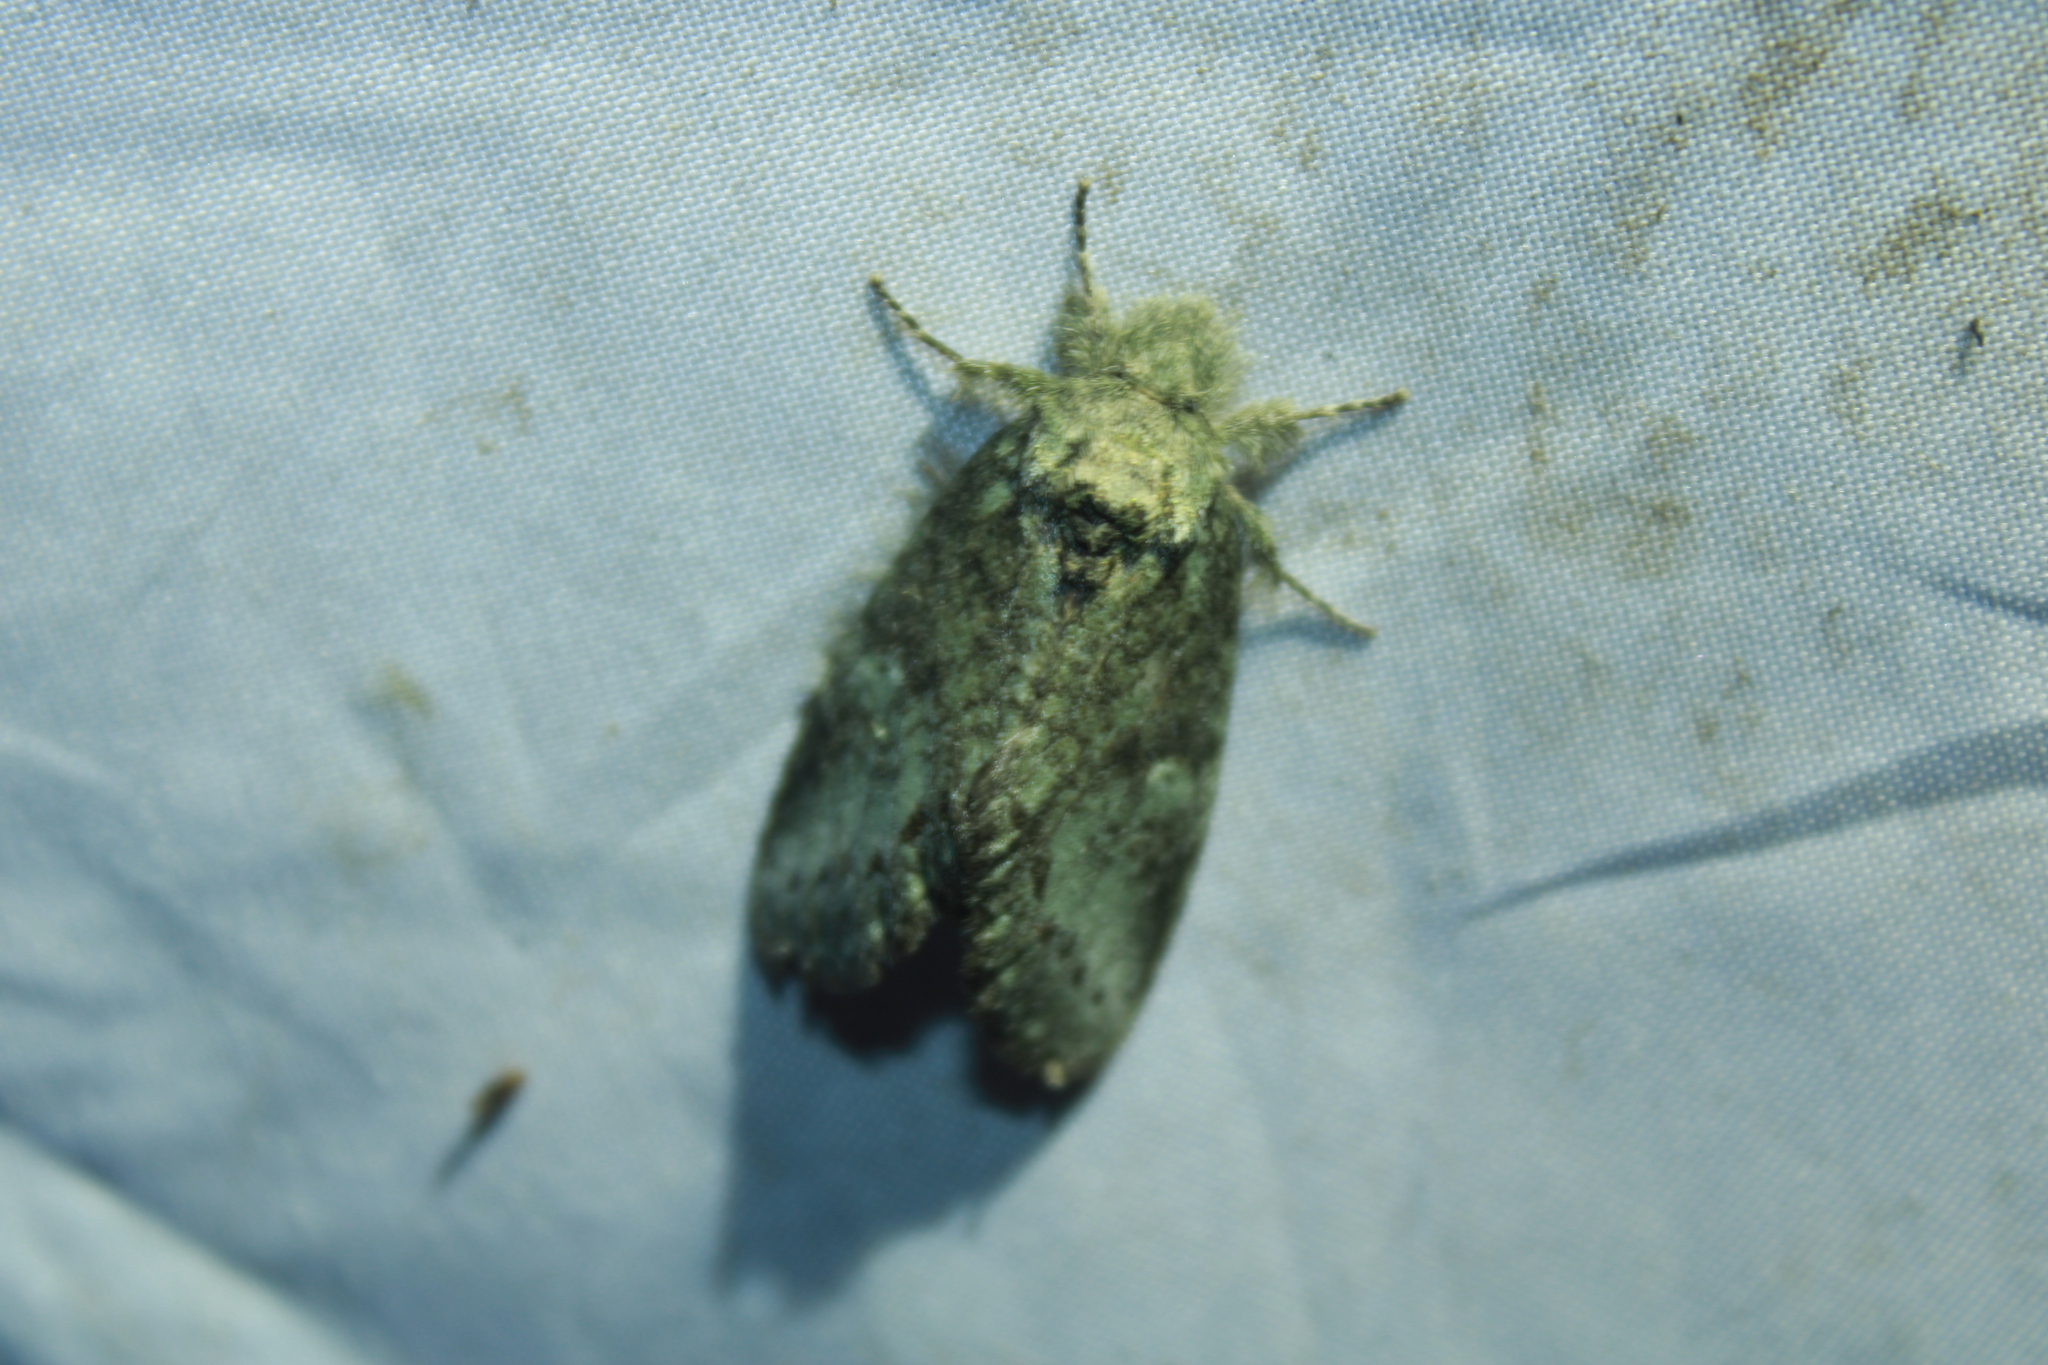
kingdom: Animalia
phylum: Arthropoda
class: Insecta
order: Lepidoptera
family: Notodontidae
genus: Lochmaeus
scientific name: Lochmaeus manteo
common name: Variable oakleaf caterpillar moth
